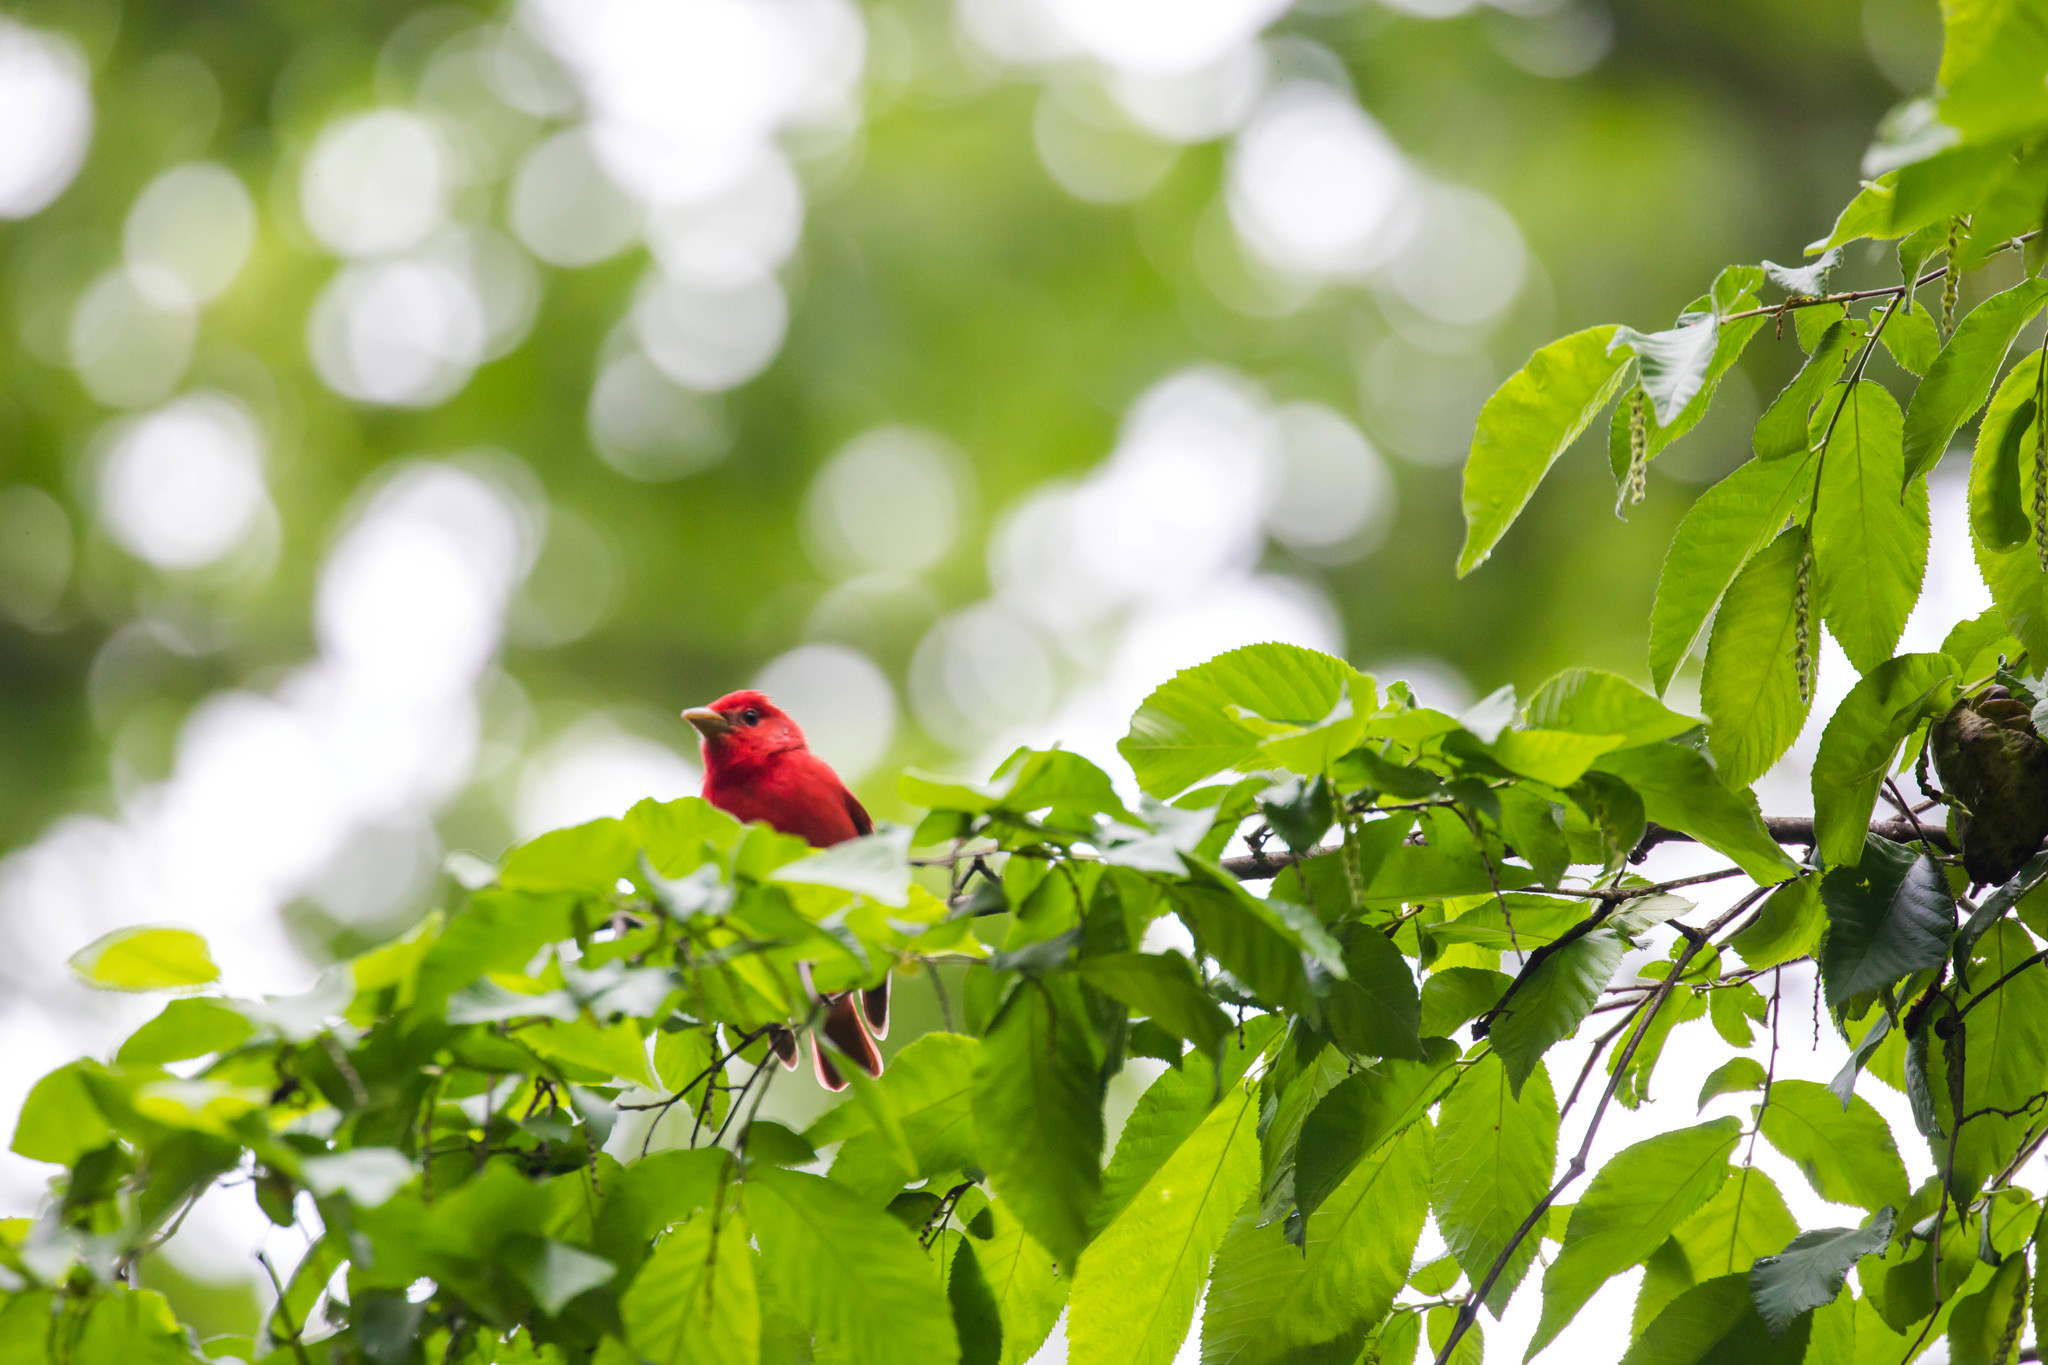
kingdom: Animalia
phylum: Chordata
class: Aves
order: Passeriformes
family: Cardinalidae
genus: Piranga
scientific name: Piranga rubra
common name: Summer tanager
